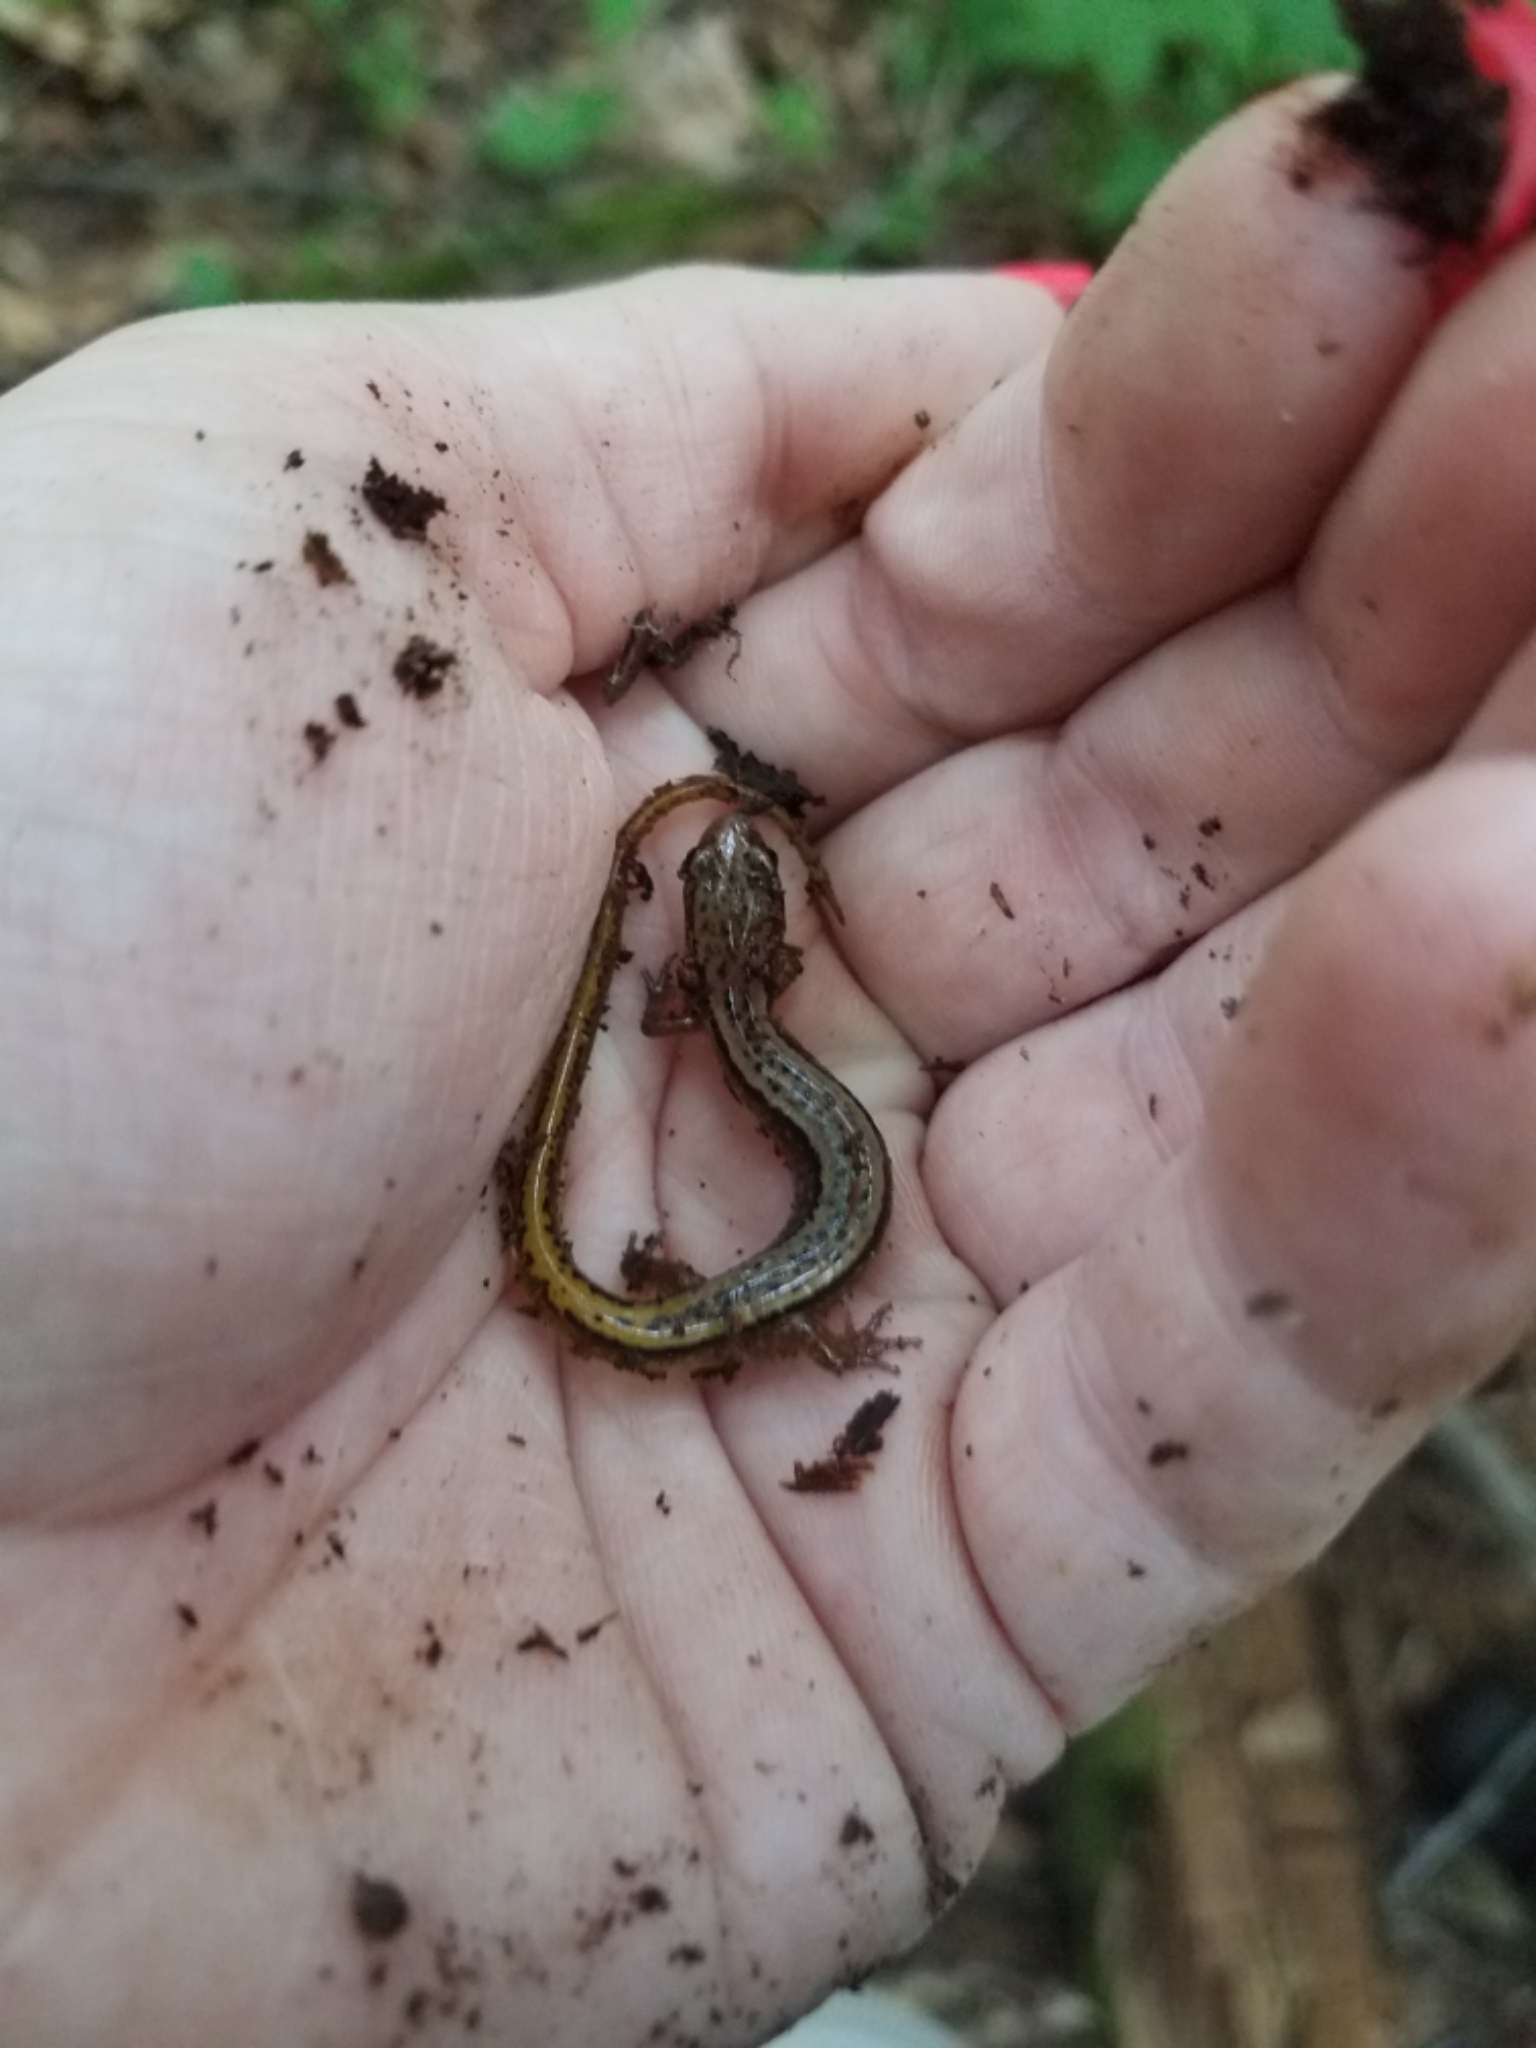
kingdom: Animalia
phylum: Chordata
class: Amphibia
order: Caudata
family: Plethodontidae
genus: Eurycea
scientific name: Eurycea bislineata
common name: Northern two-lined salamander
